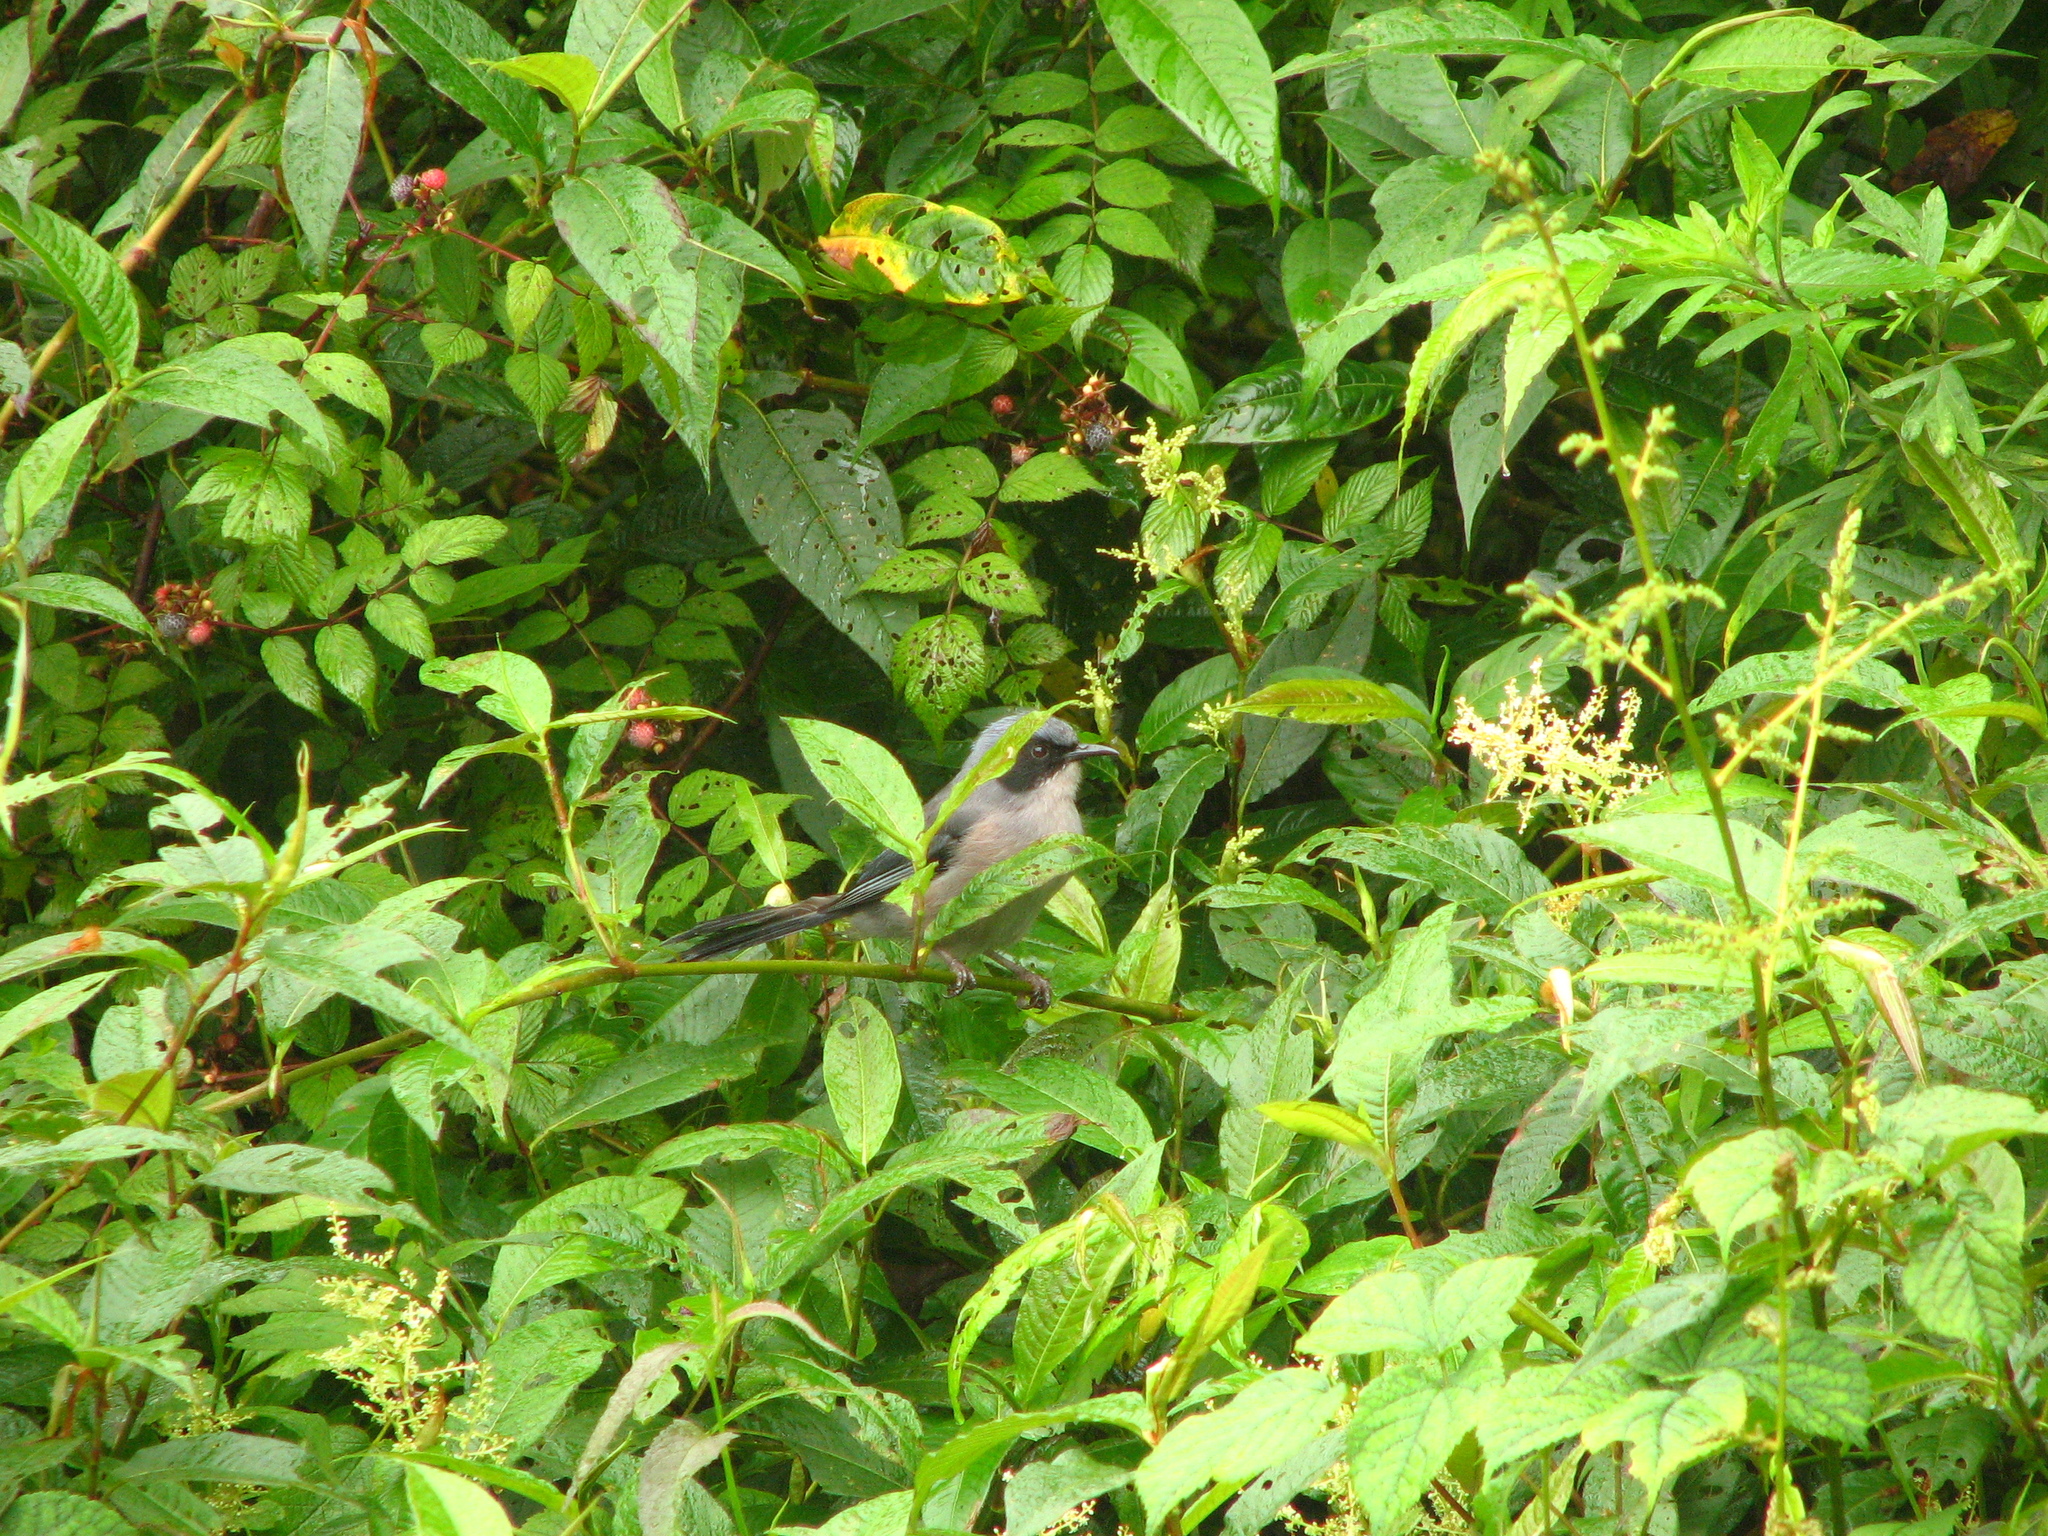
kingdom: Animalia
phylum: Chordata
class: Aves
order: Passeriformes
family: Leiothrichidae
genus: Heterophasia
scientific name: Heterophasia pulchella
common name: Beautiful sibia
